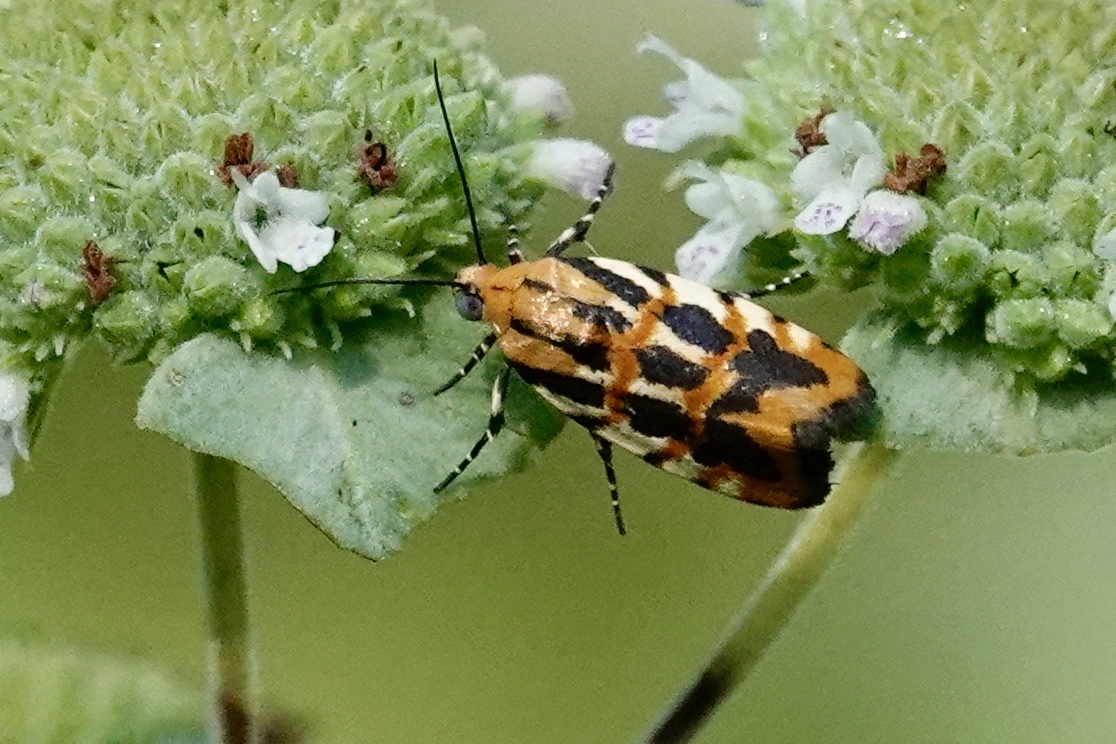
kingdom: Animalia
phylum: Arthropoda
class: Insecta
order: Lepidoptera
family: Noctuidae
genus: Acontia
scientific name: Acontia leo
